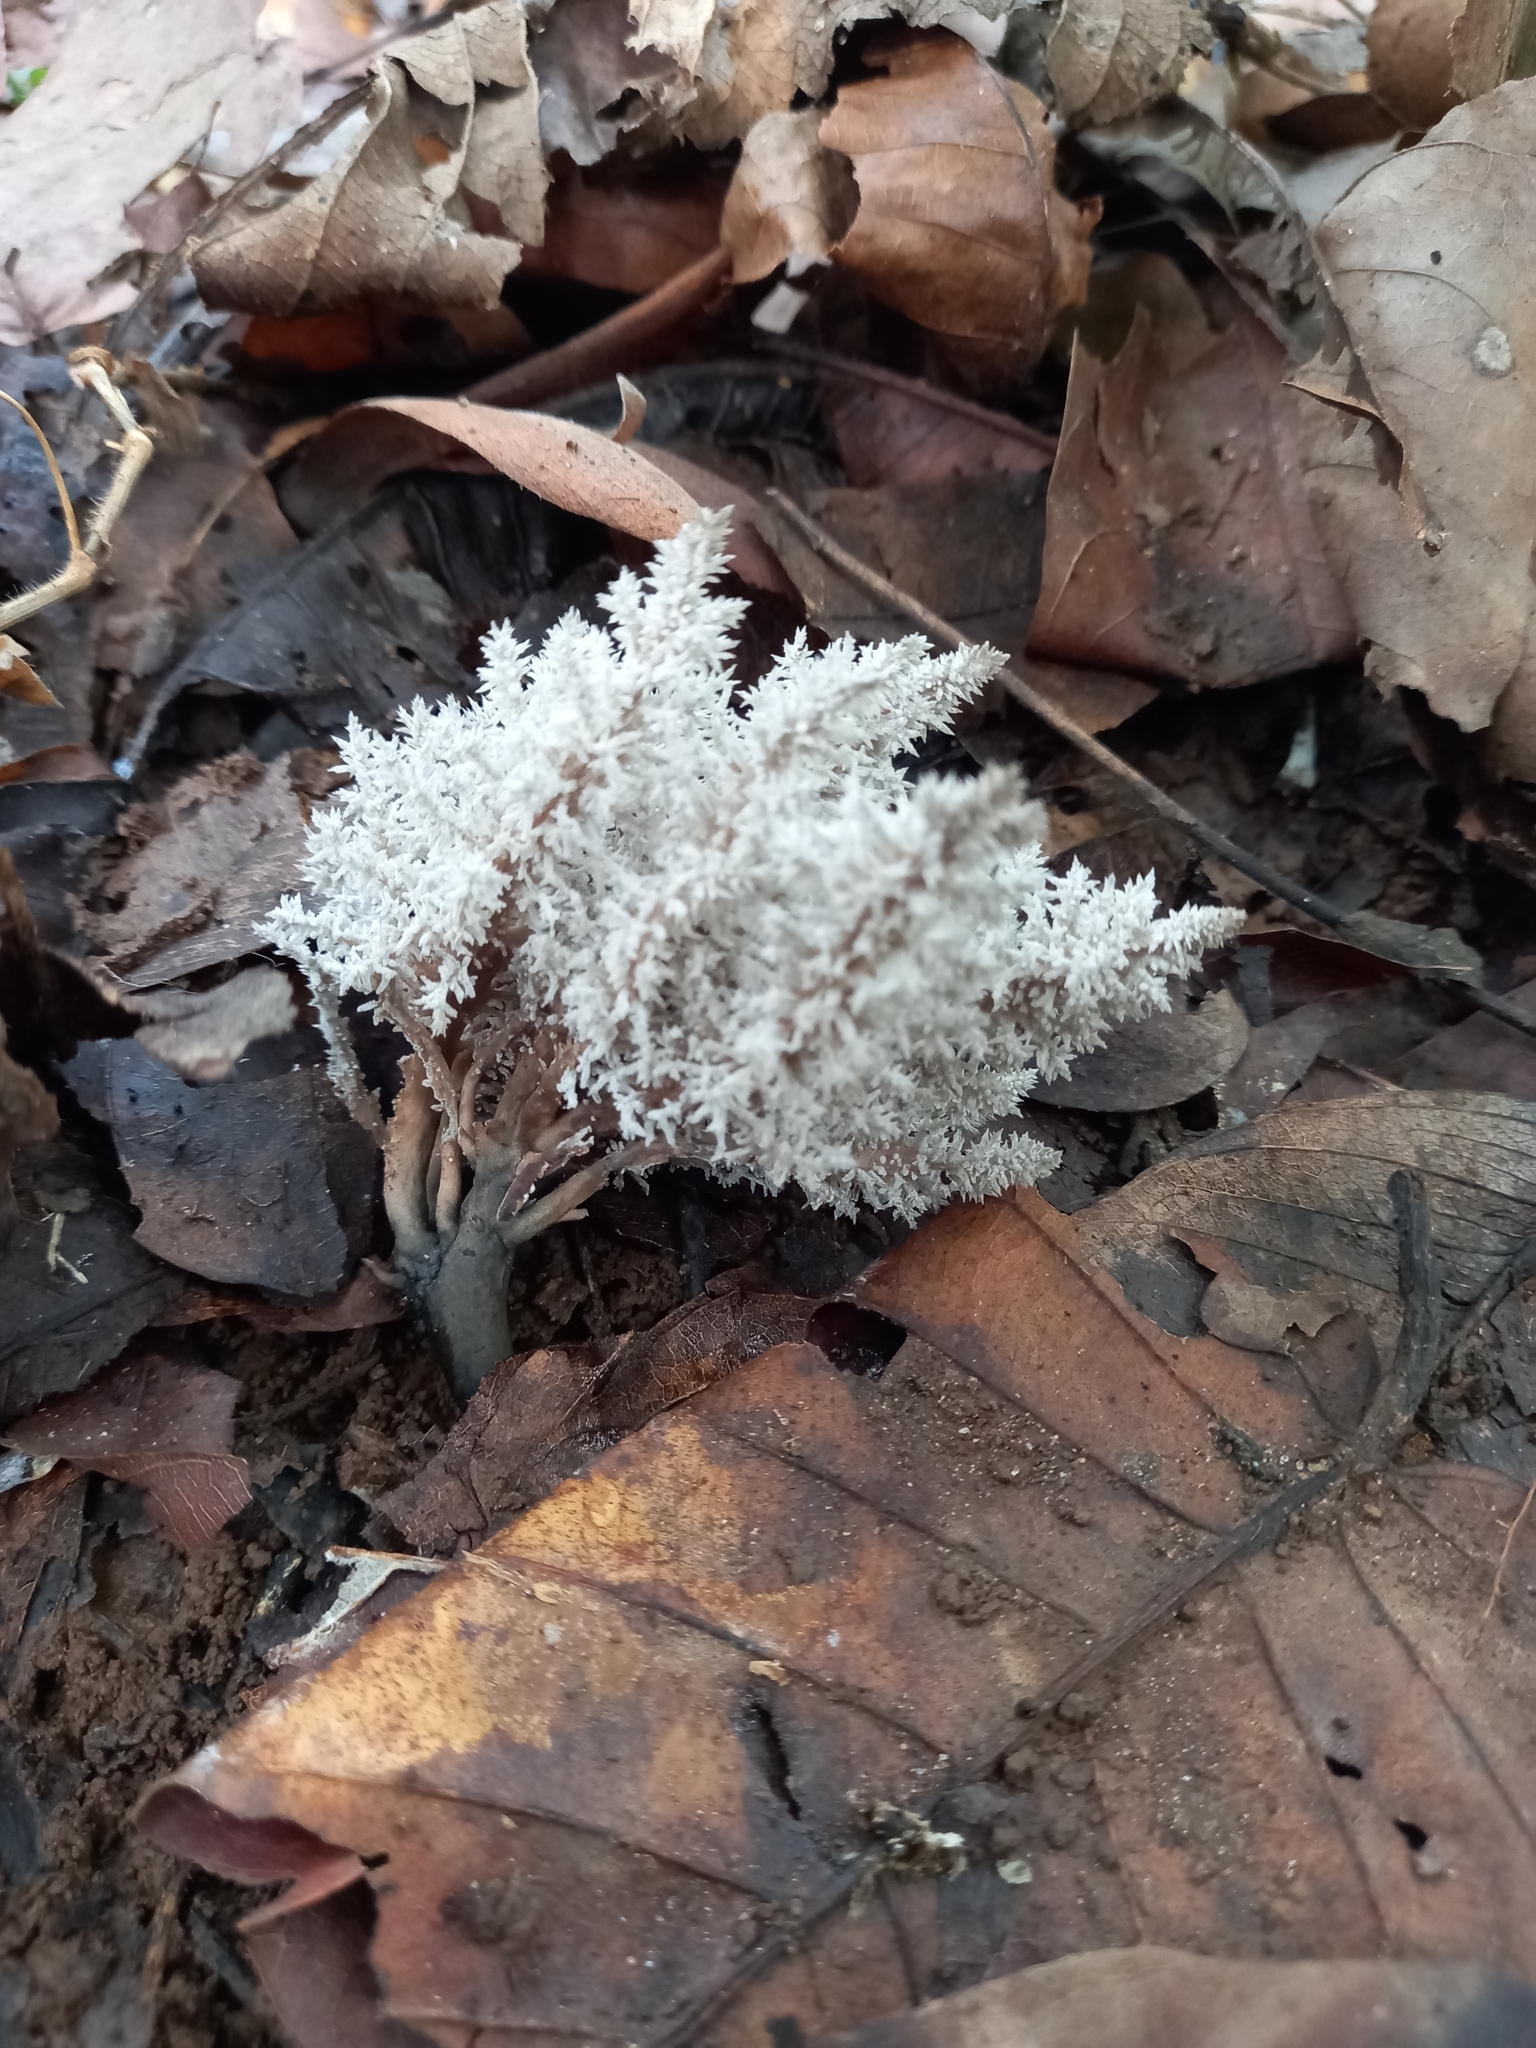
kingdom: Fungi
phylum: Basidiomycota
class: Agaricomycetes
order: Cantharellales
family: Hydnaceae
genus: Clavulina
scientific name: Clavulina coralloides
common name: Crested coral
